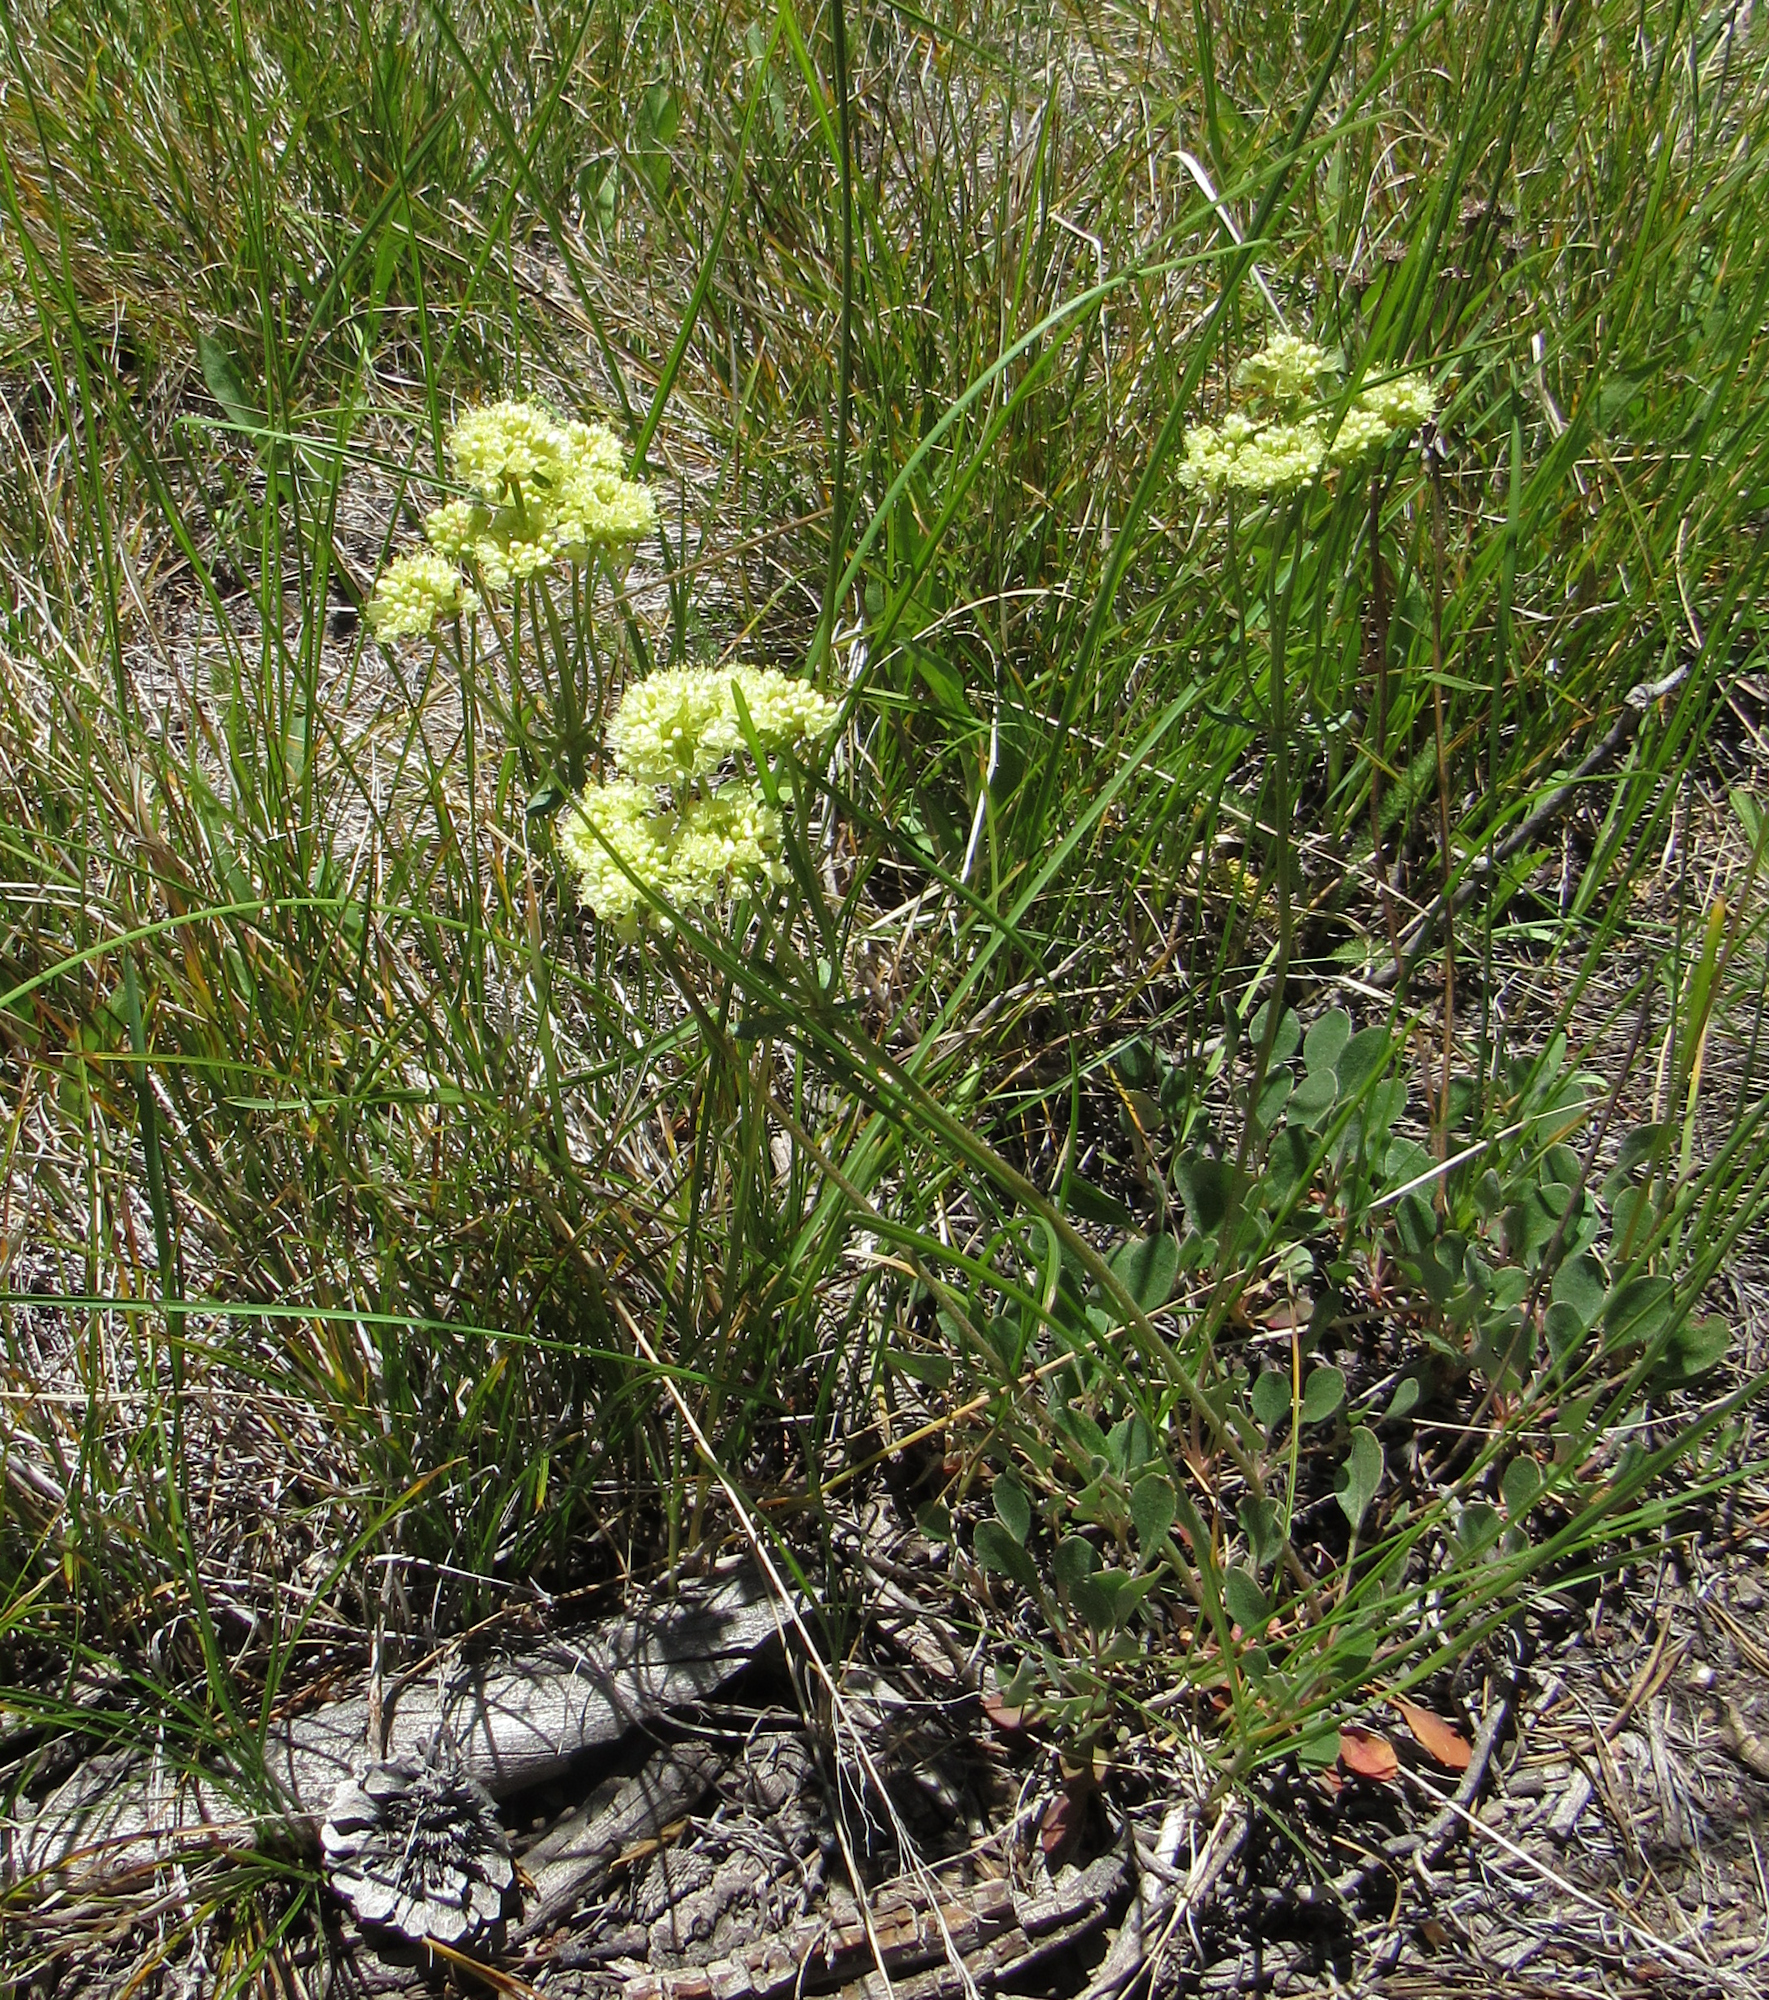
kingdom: Plantae
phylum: Tracheophyta
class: Magnoliopsida
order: Caryophyllales
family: Polygonaceae
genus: Eriogonum
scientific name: Eriogonum umbellatum
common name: Sulfur-buckwheat
